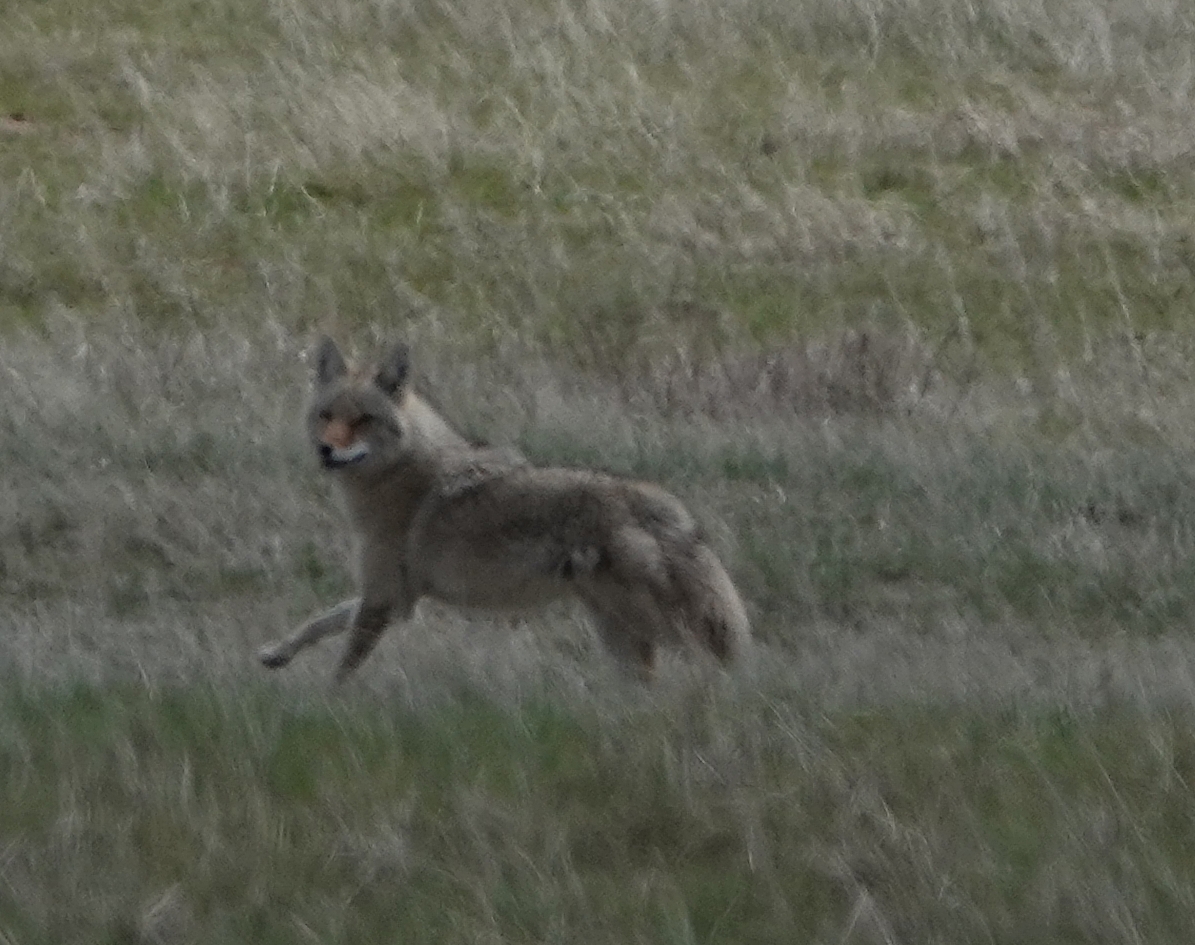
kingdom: Animalia
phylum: Chordata
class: Mammalia
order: Carnivora
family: Canidae
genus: Canis
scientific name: Canis latrans
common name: Coyote
